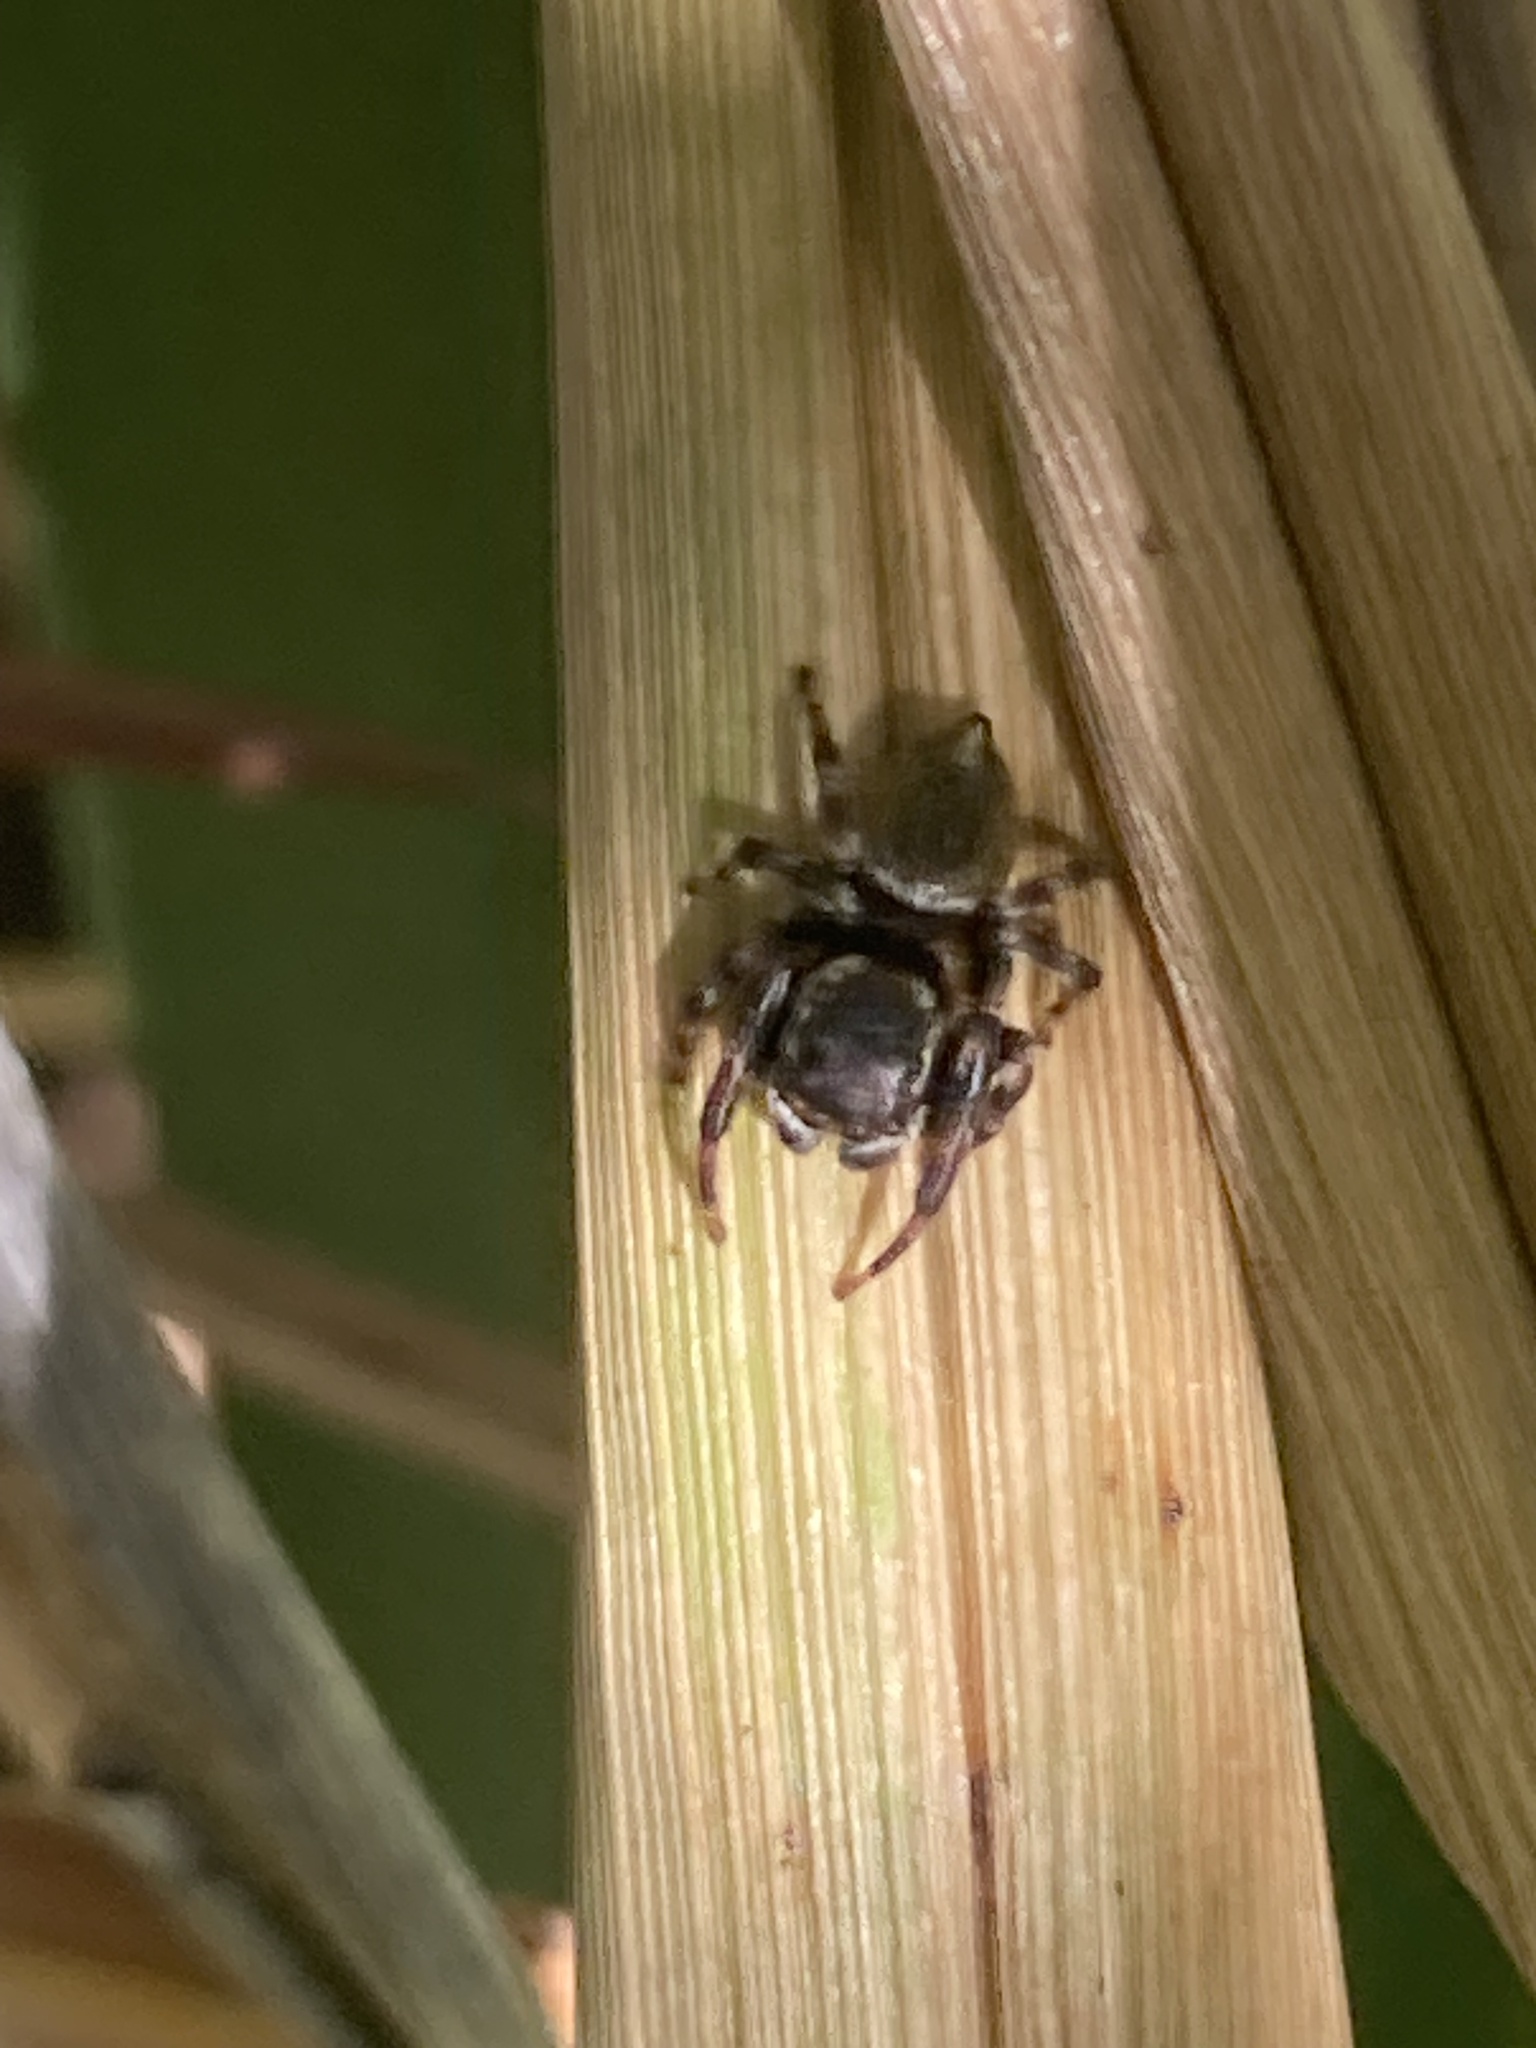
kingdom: Animalia
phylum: Arthropoda
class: Arachnida
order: Araneae
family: Salticidae
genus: Maratus
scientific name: Maratus scutulatus
